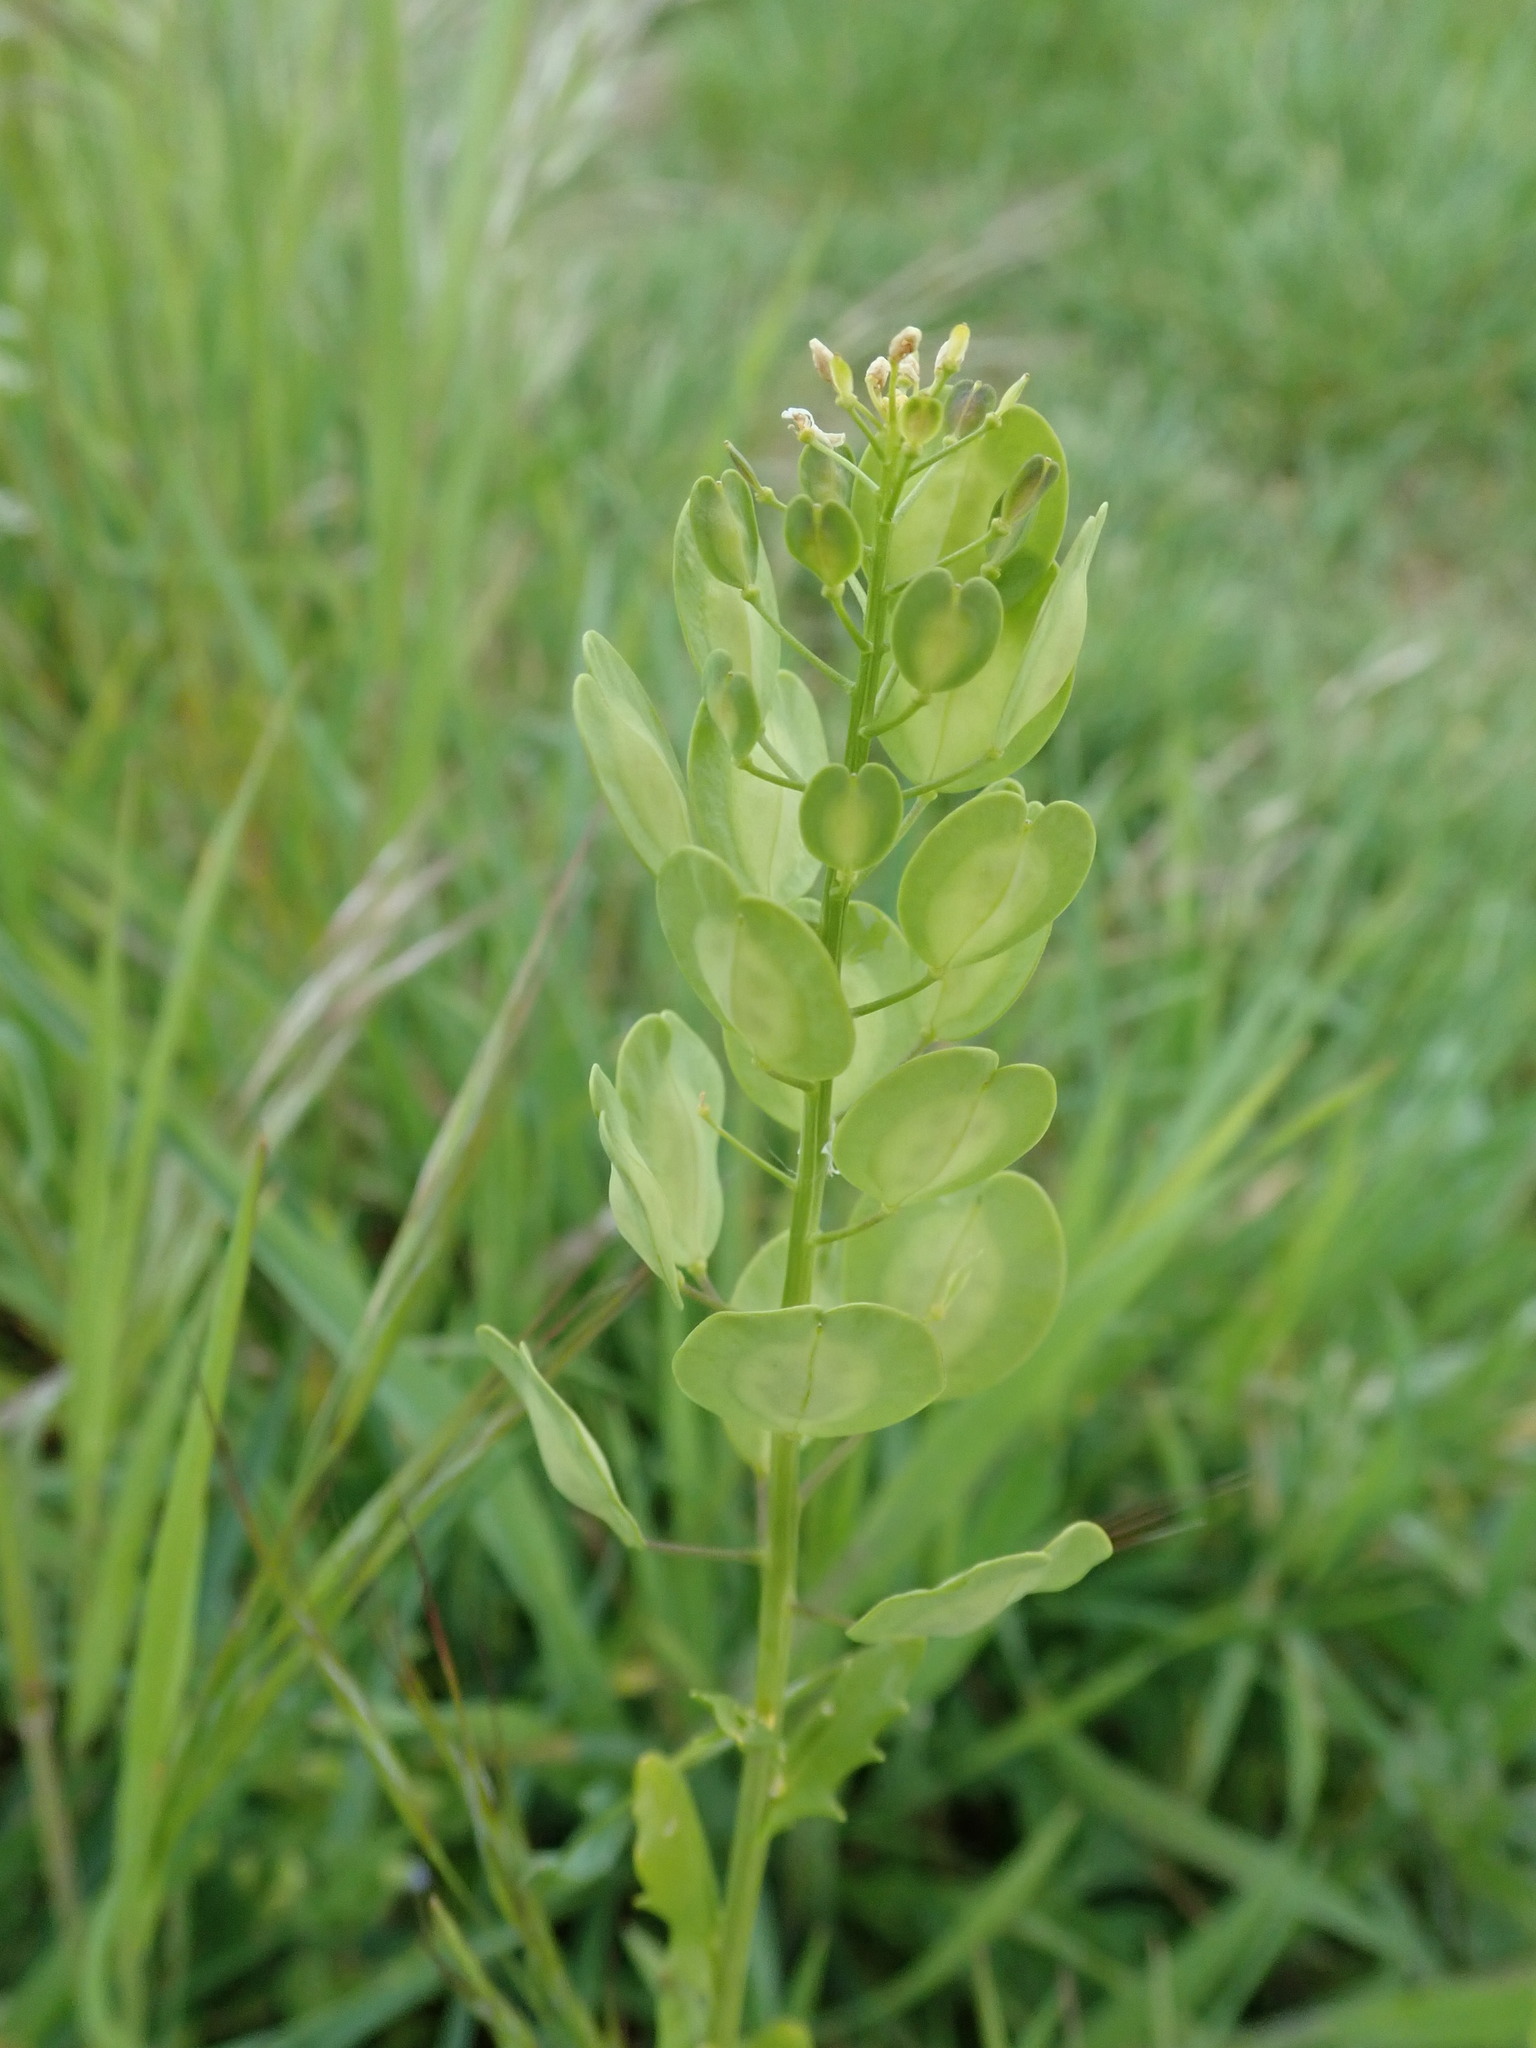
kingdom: Plantae
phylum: Tracheophyta
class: Magnoliopsida
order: Brassicales
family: Brassicaceae
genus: Thlaspi
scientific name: Thlaspi arvense
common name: Field pennycress
